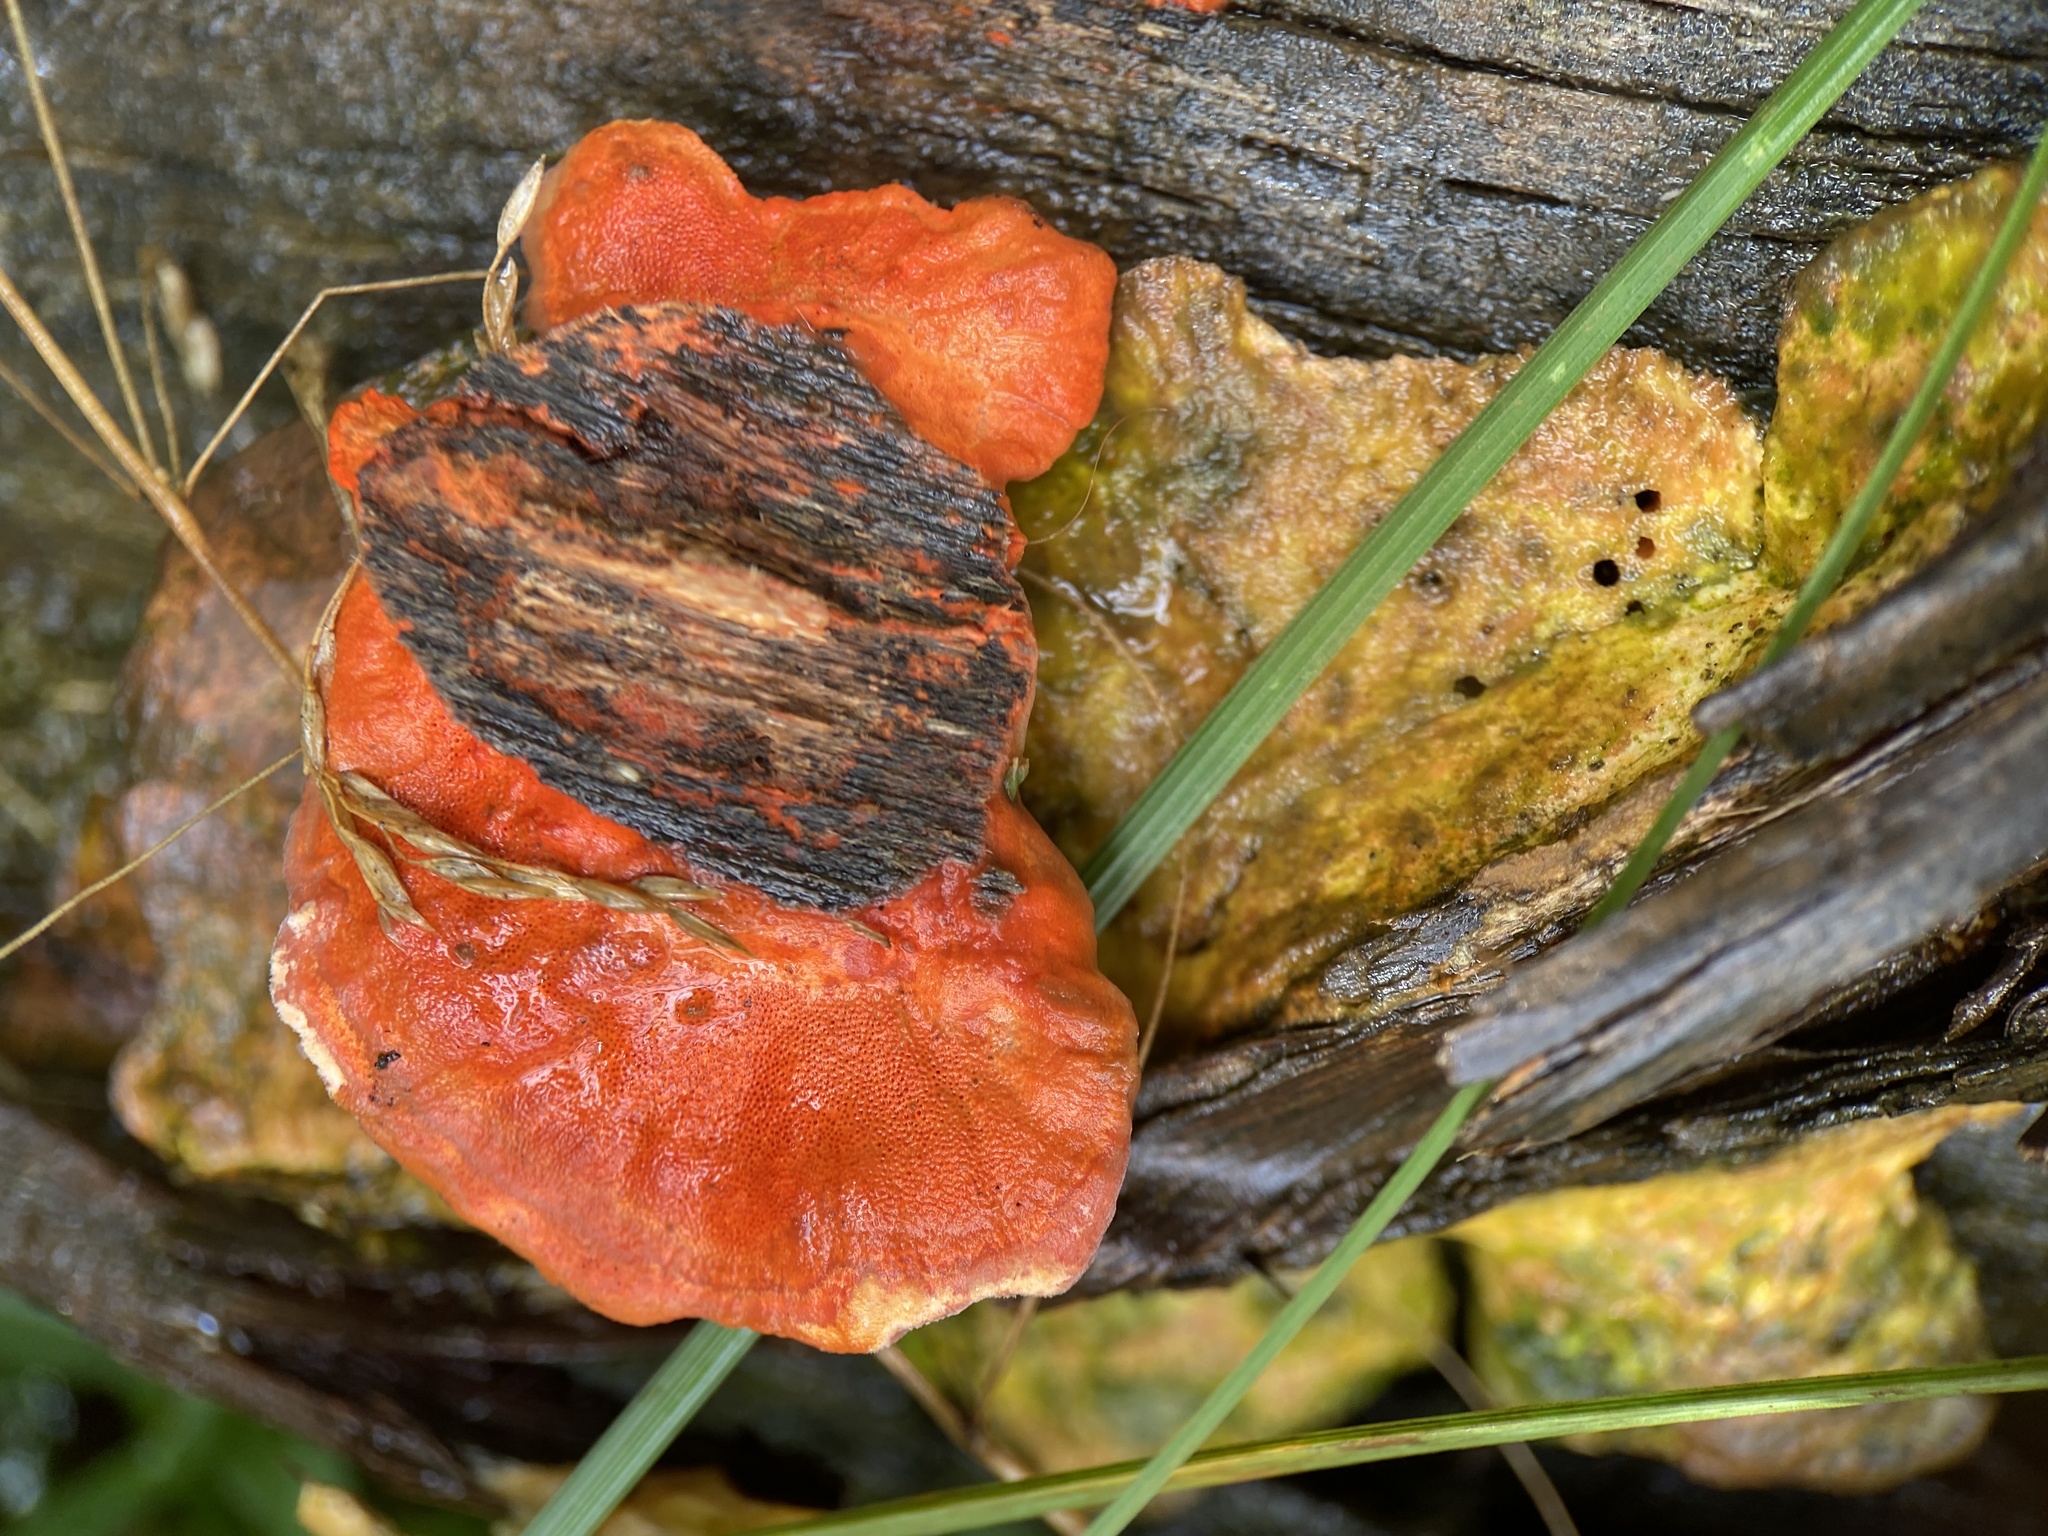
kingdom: Fungi
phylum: Basidiomycota
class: Agaricomycetes
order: Polyporales
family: Polyporaceae
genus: Trametes
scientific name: Trametes coccinea
